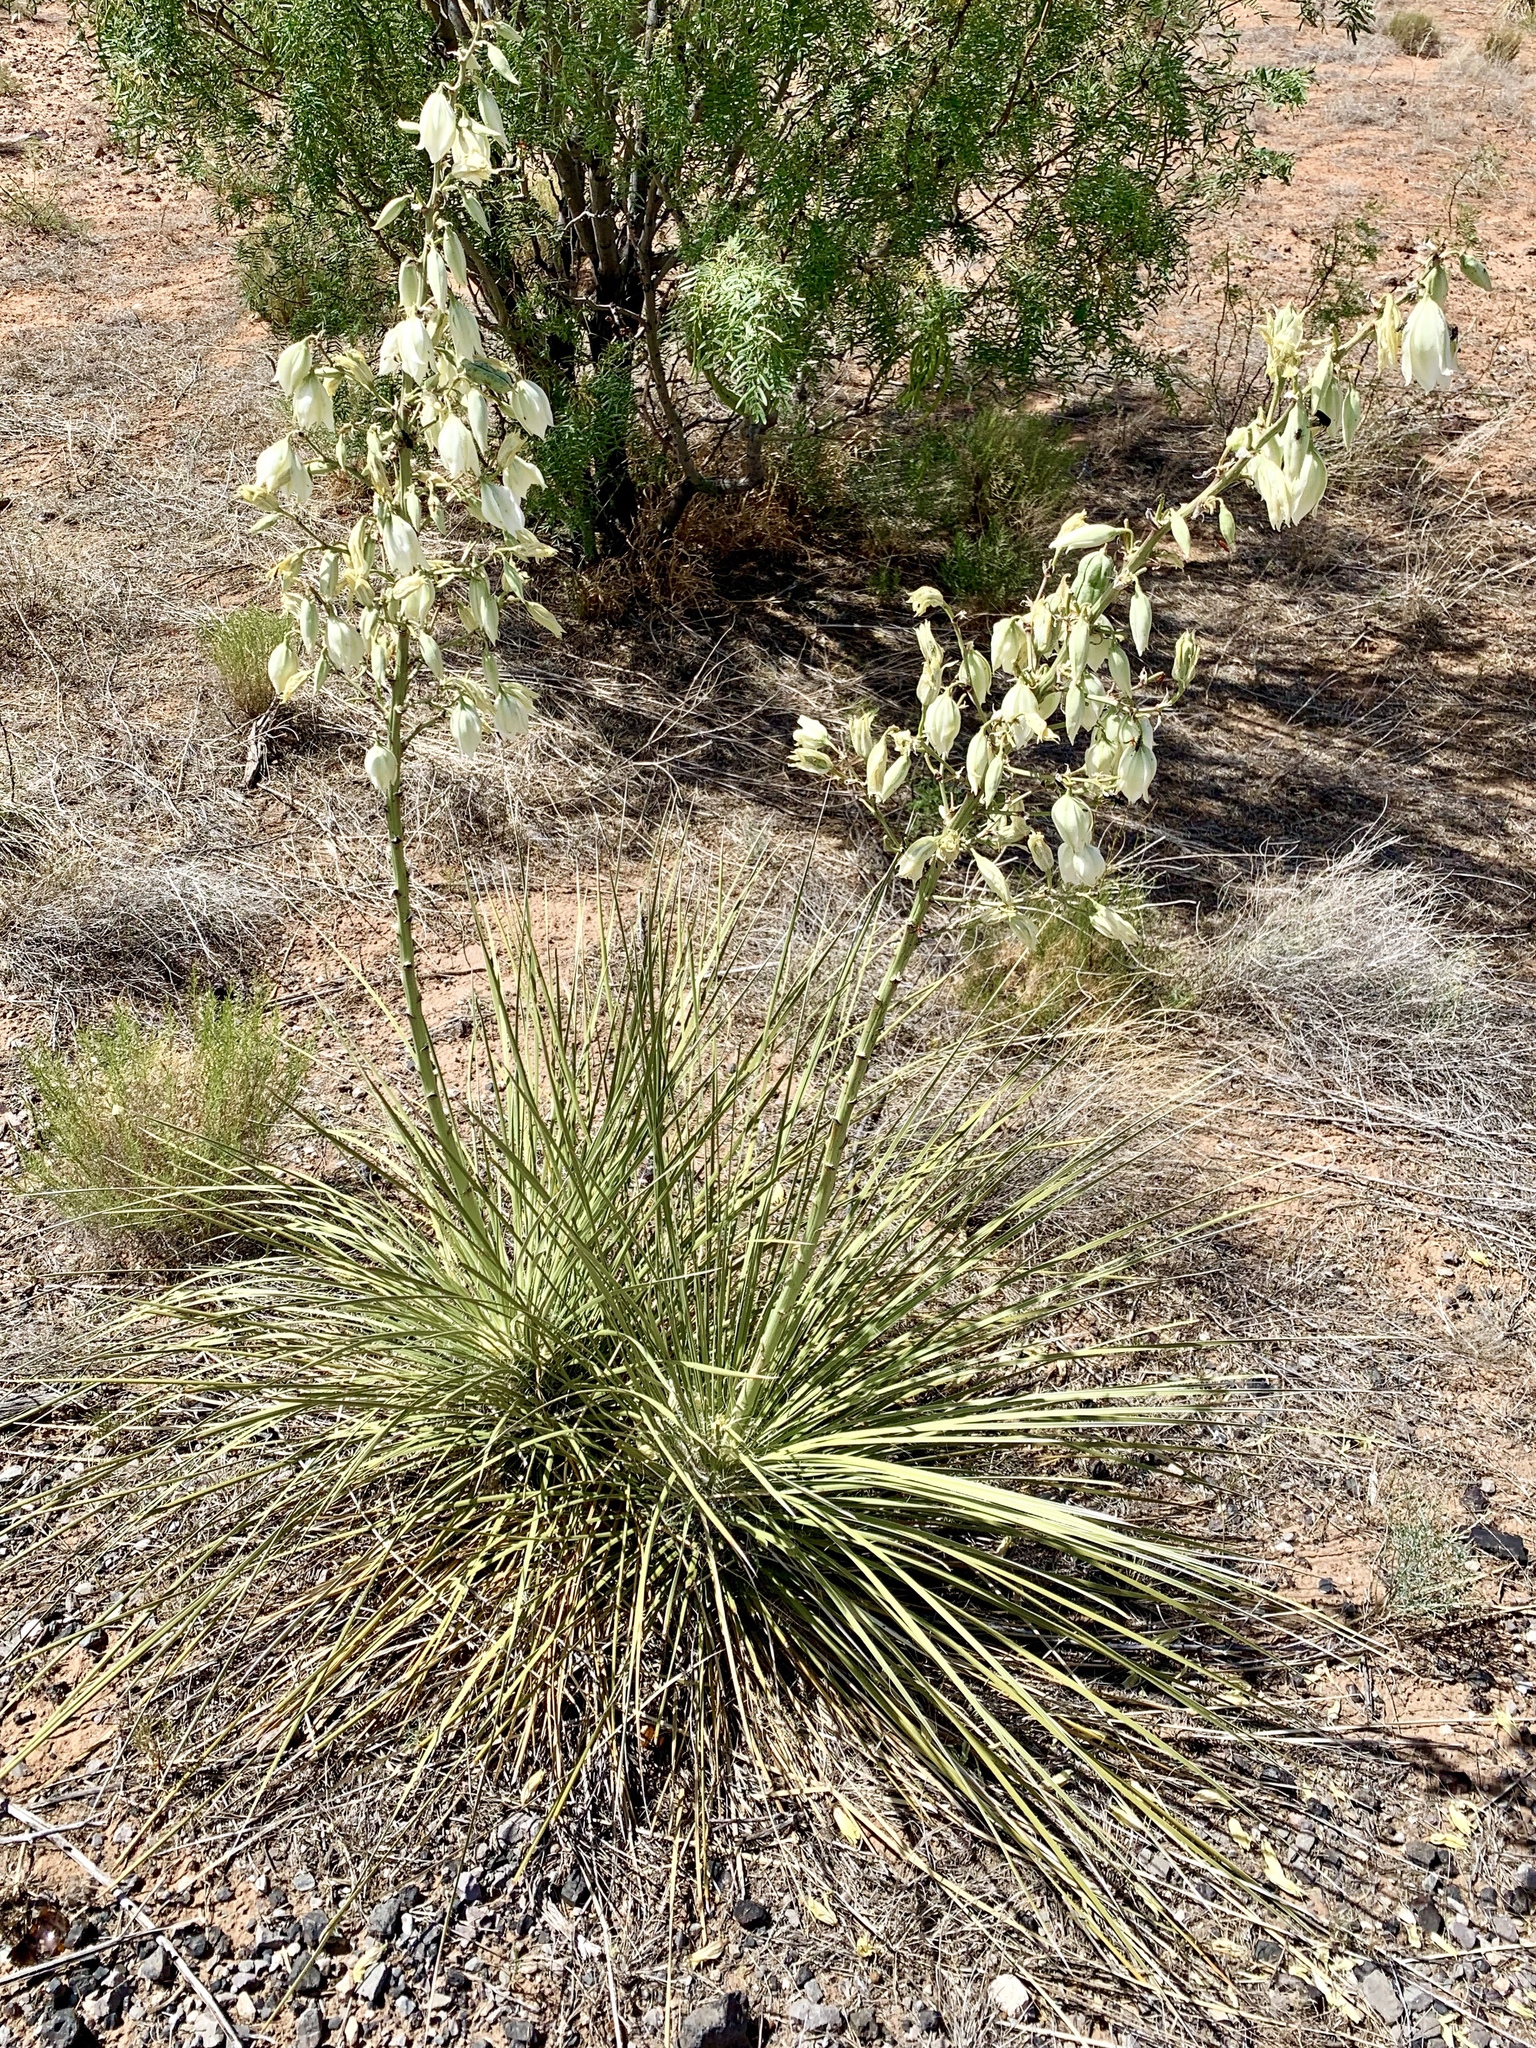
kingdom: Plantae
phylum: Tracheophyta
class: Liliopsida
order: Asparagales
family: Asparagaceae
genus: Yucca
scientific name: Yucca elata
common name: Palmella
